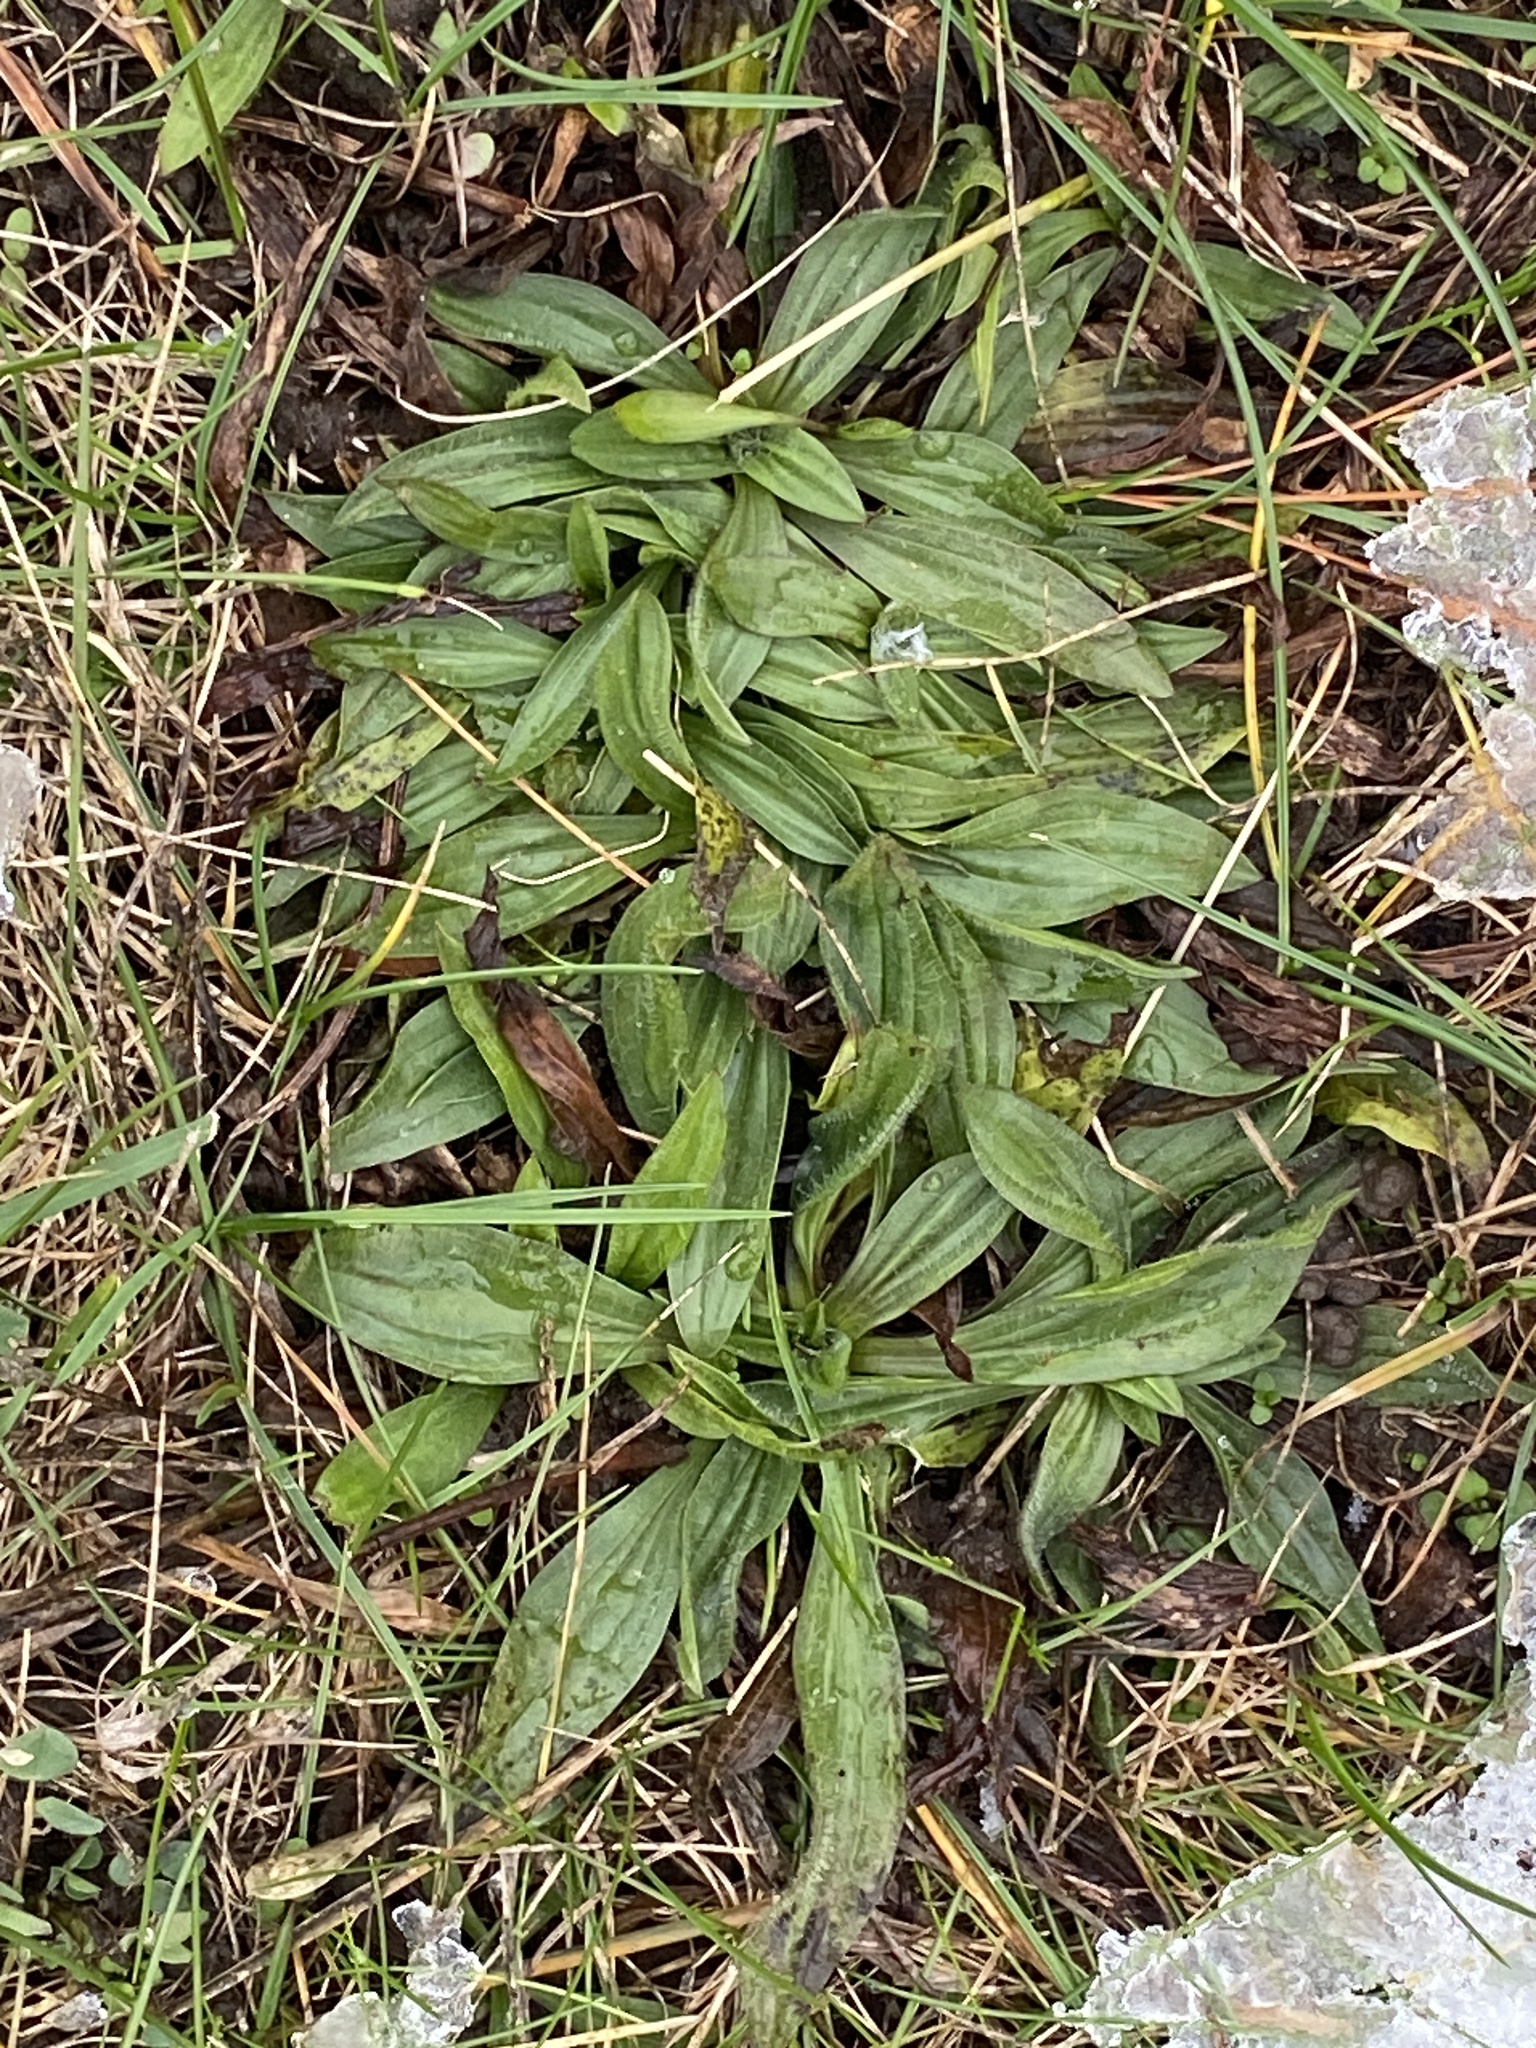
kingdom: Plantae
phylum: Tracheophyta
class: Magnoliopsida
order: Lamiales
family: Plantaginaceae
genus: Plantago
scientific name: Plantago lanceolata
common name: Ribwort plantain
